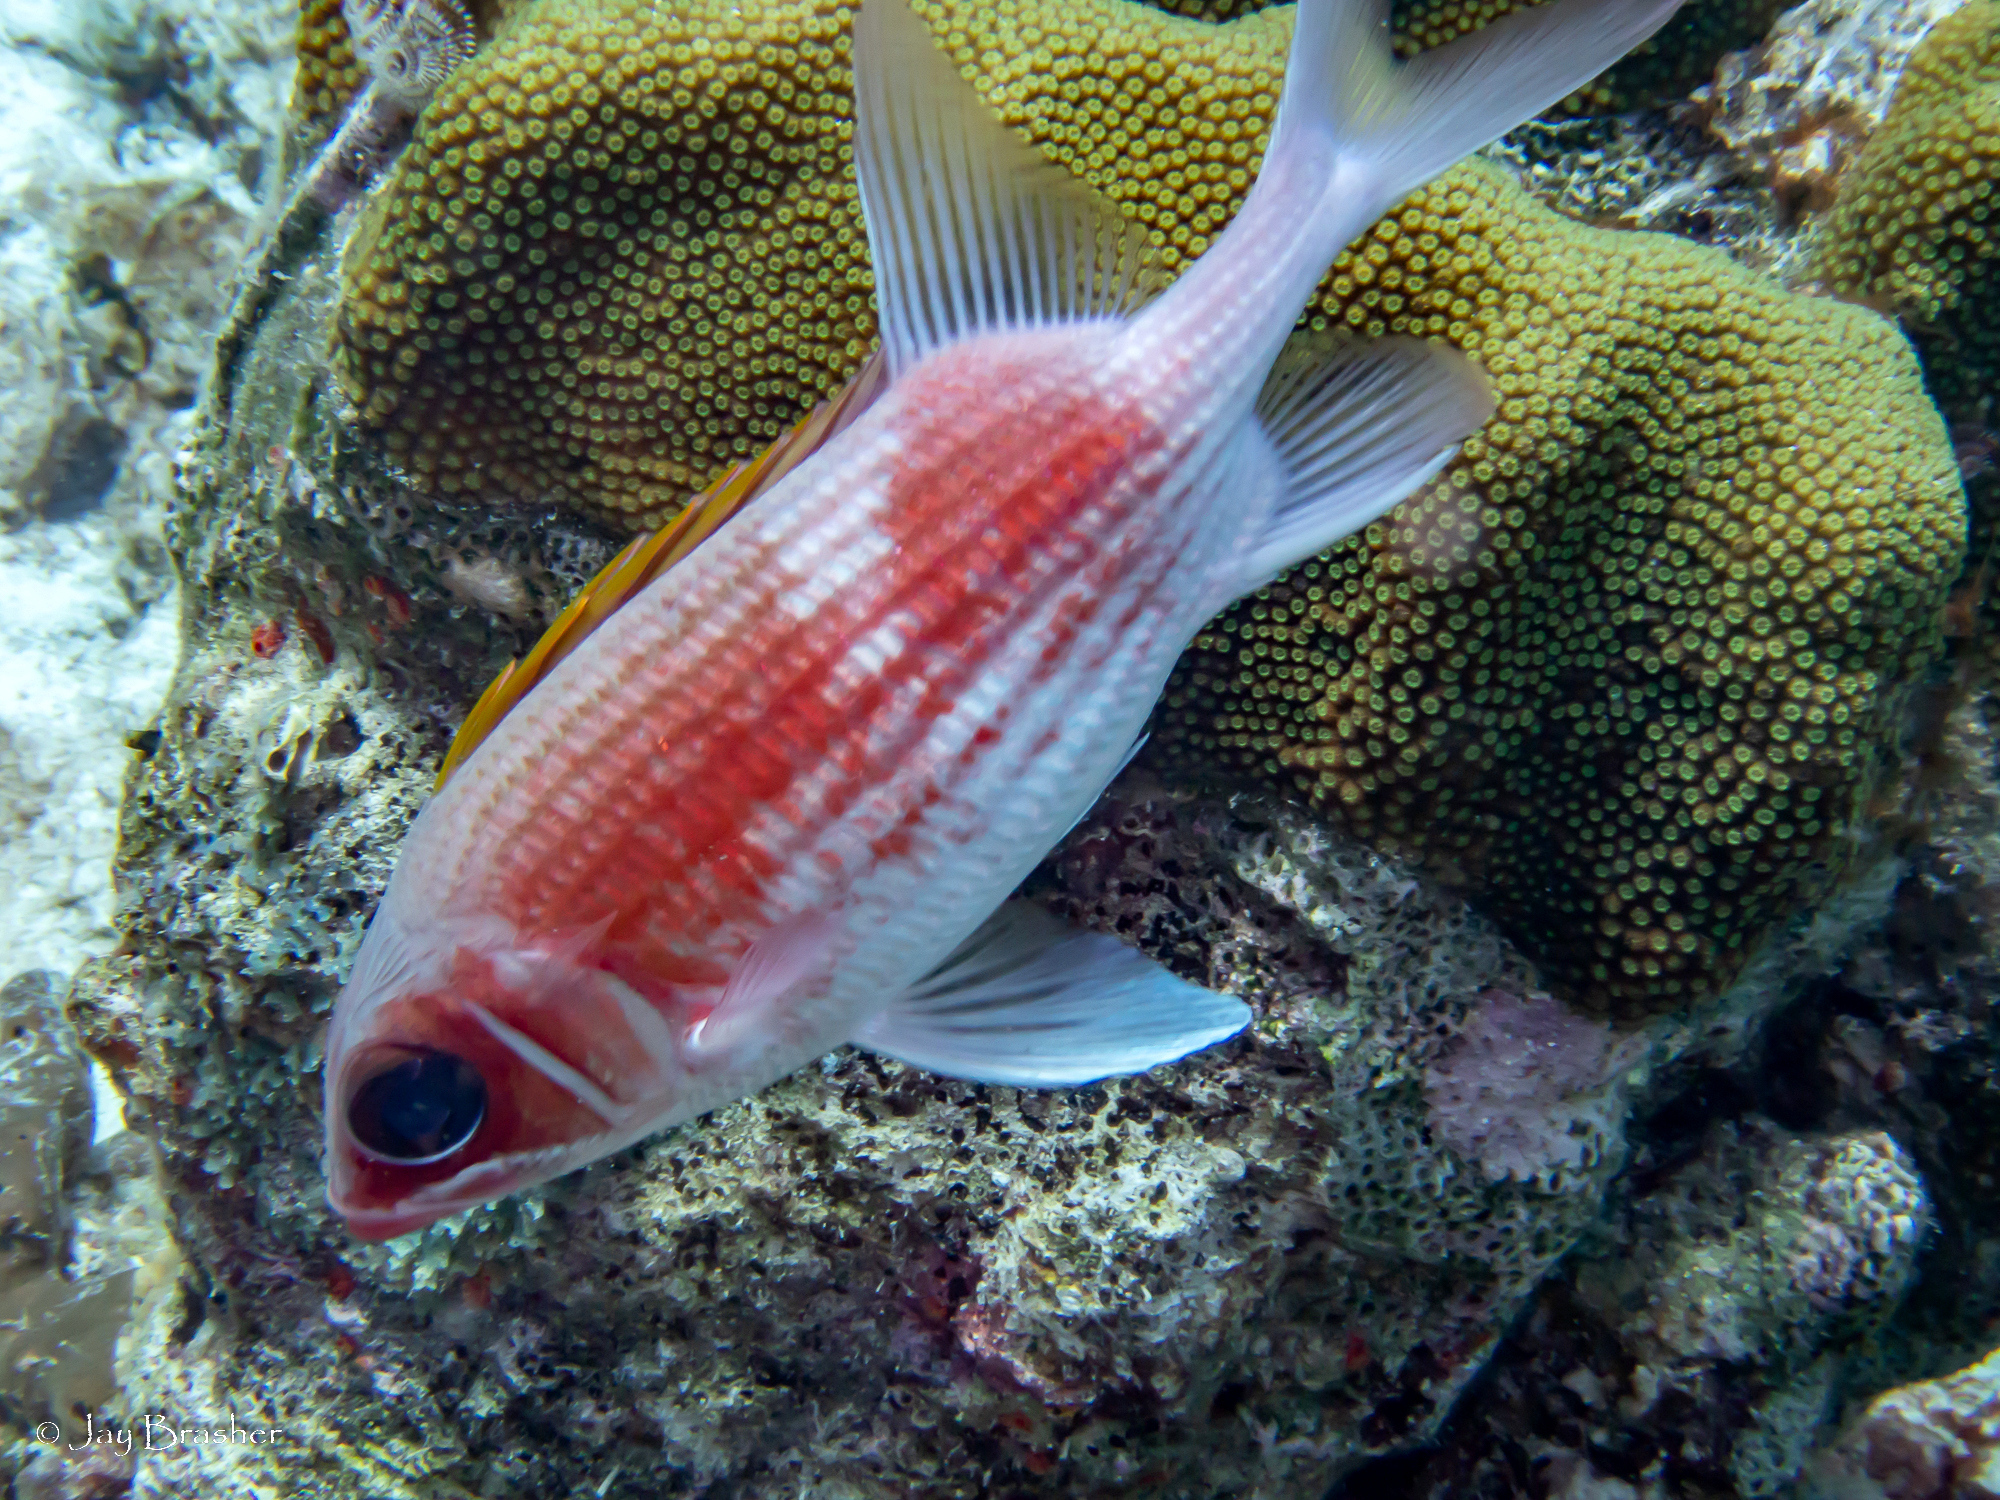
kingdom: Animalia
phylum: Chordata
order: Beryciformes
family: Holocentridae
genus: Holocentrus
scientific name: Holocentrus adscensionis
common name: Squirrelfish
